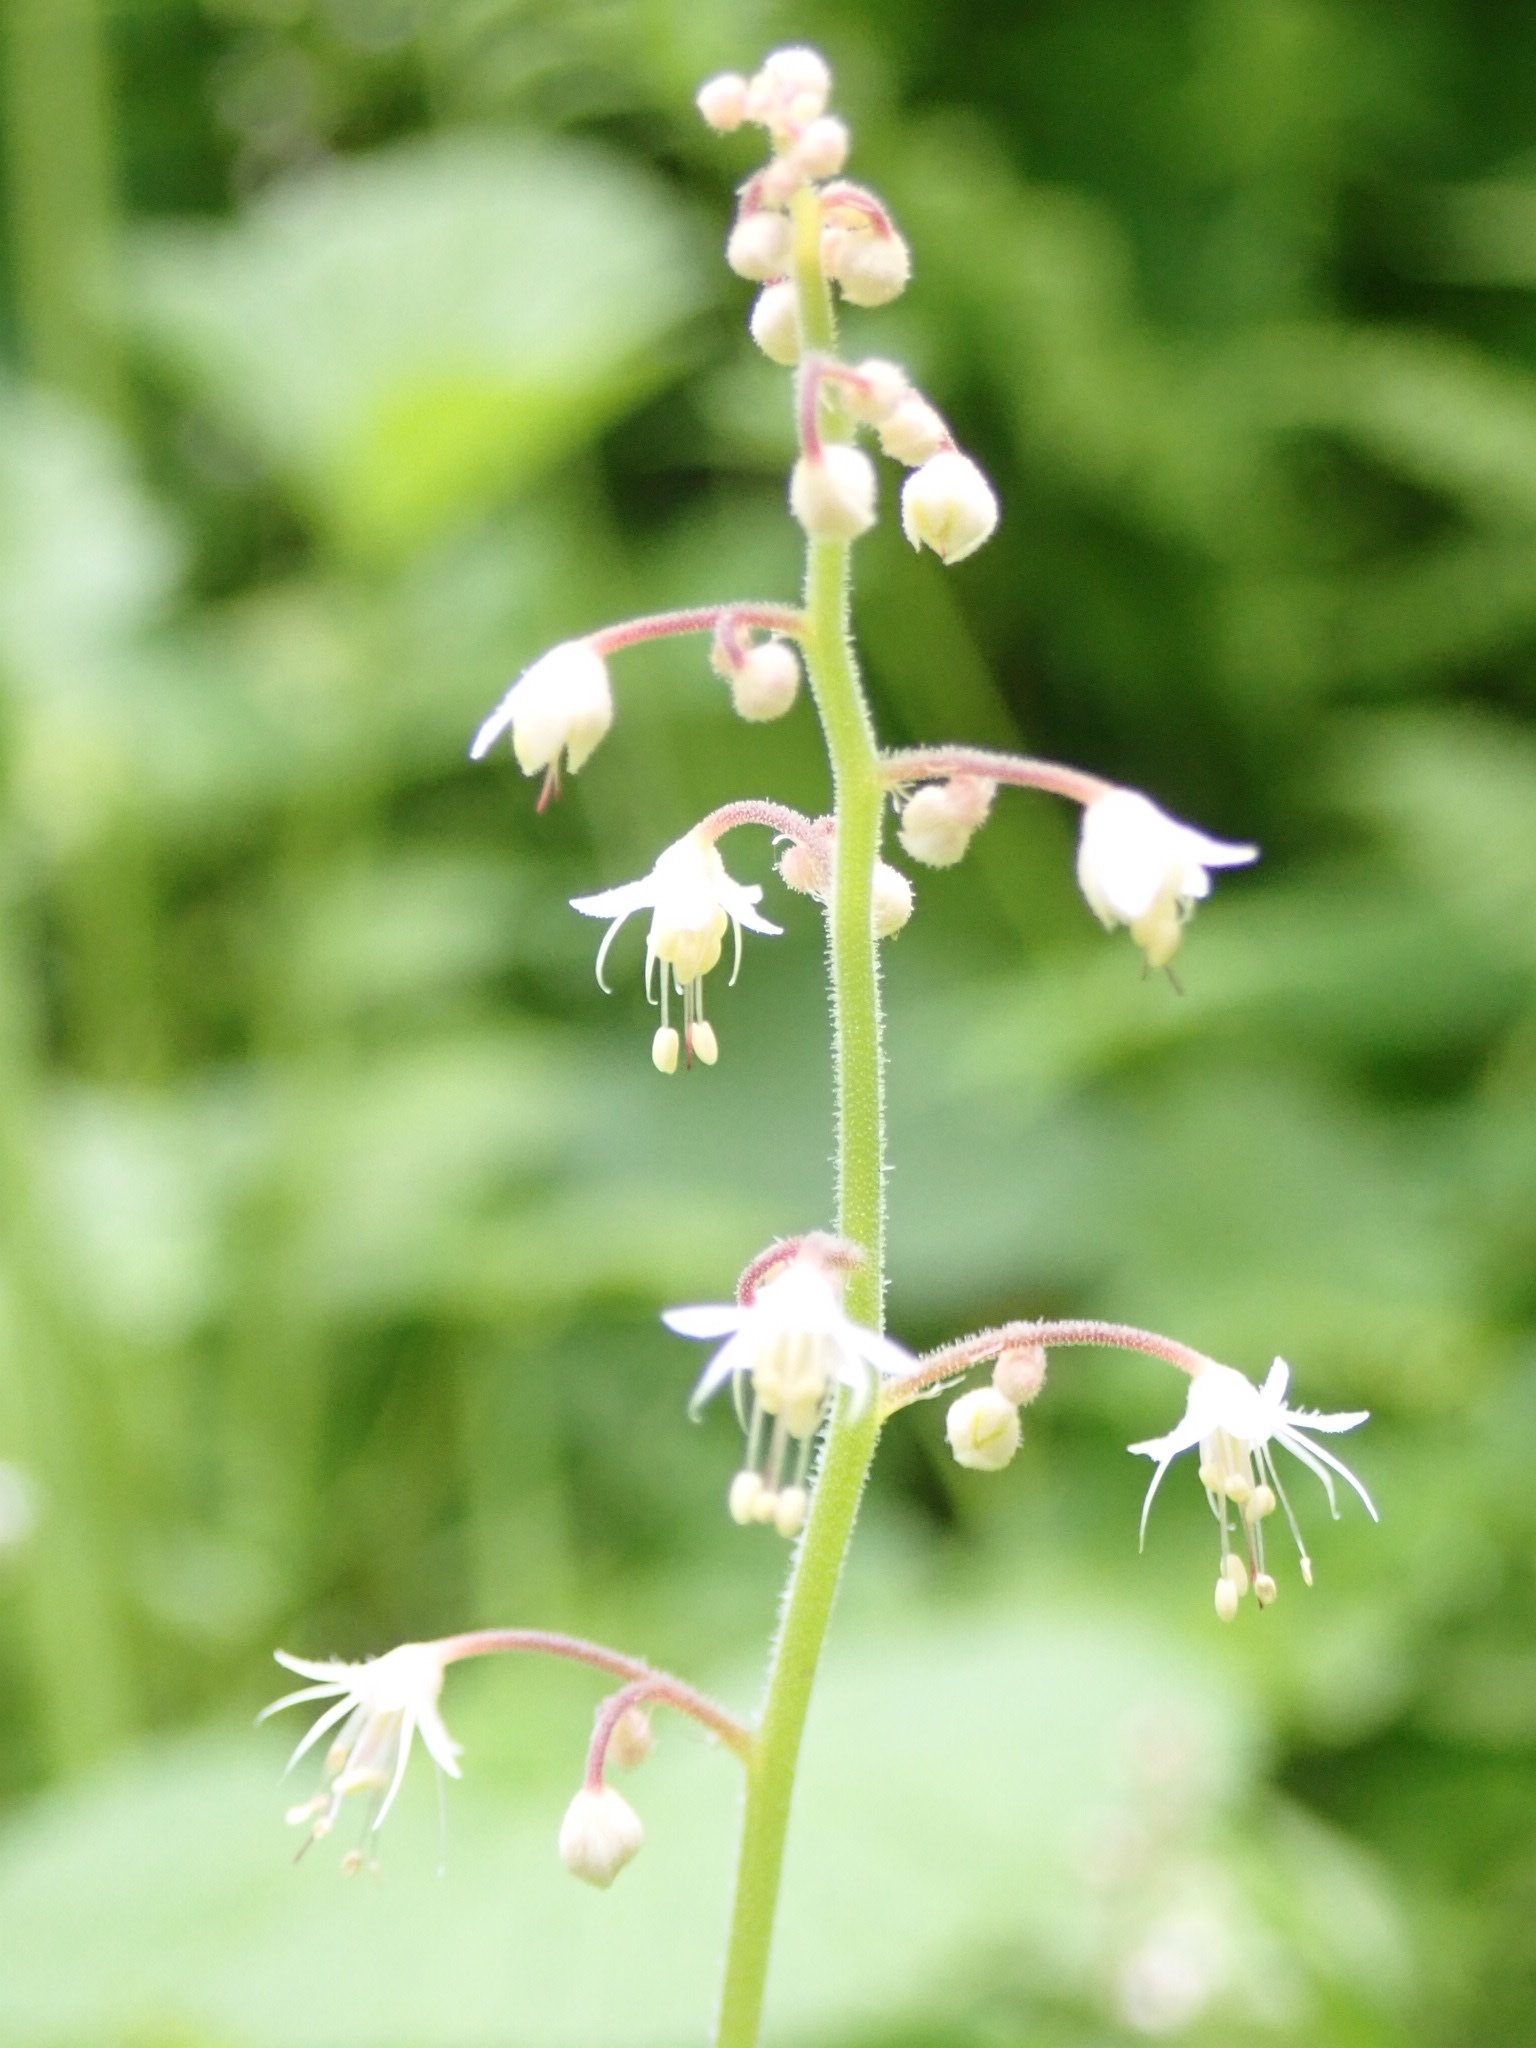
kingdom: Plantae
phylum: Tracheophyta
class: Magnoliopsida
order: Saxifragales
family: Saxifragaceae
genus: Tiarella
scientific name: Tiarella trifoliata
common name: Sugar-scoop
